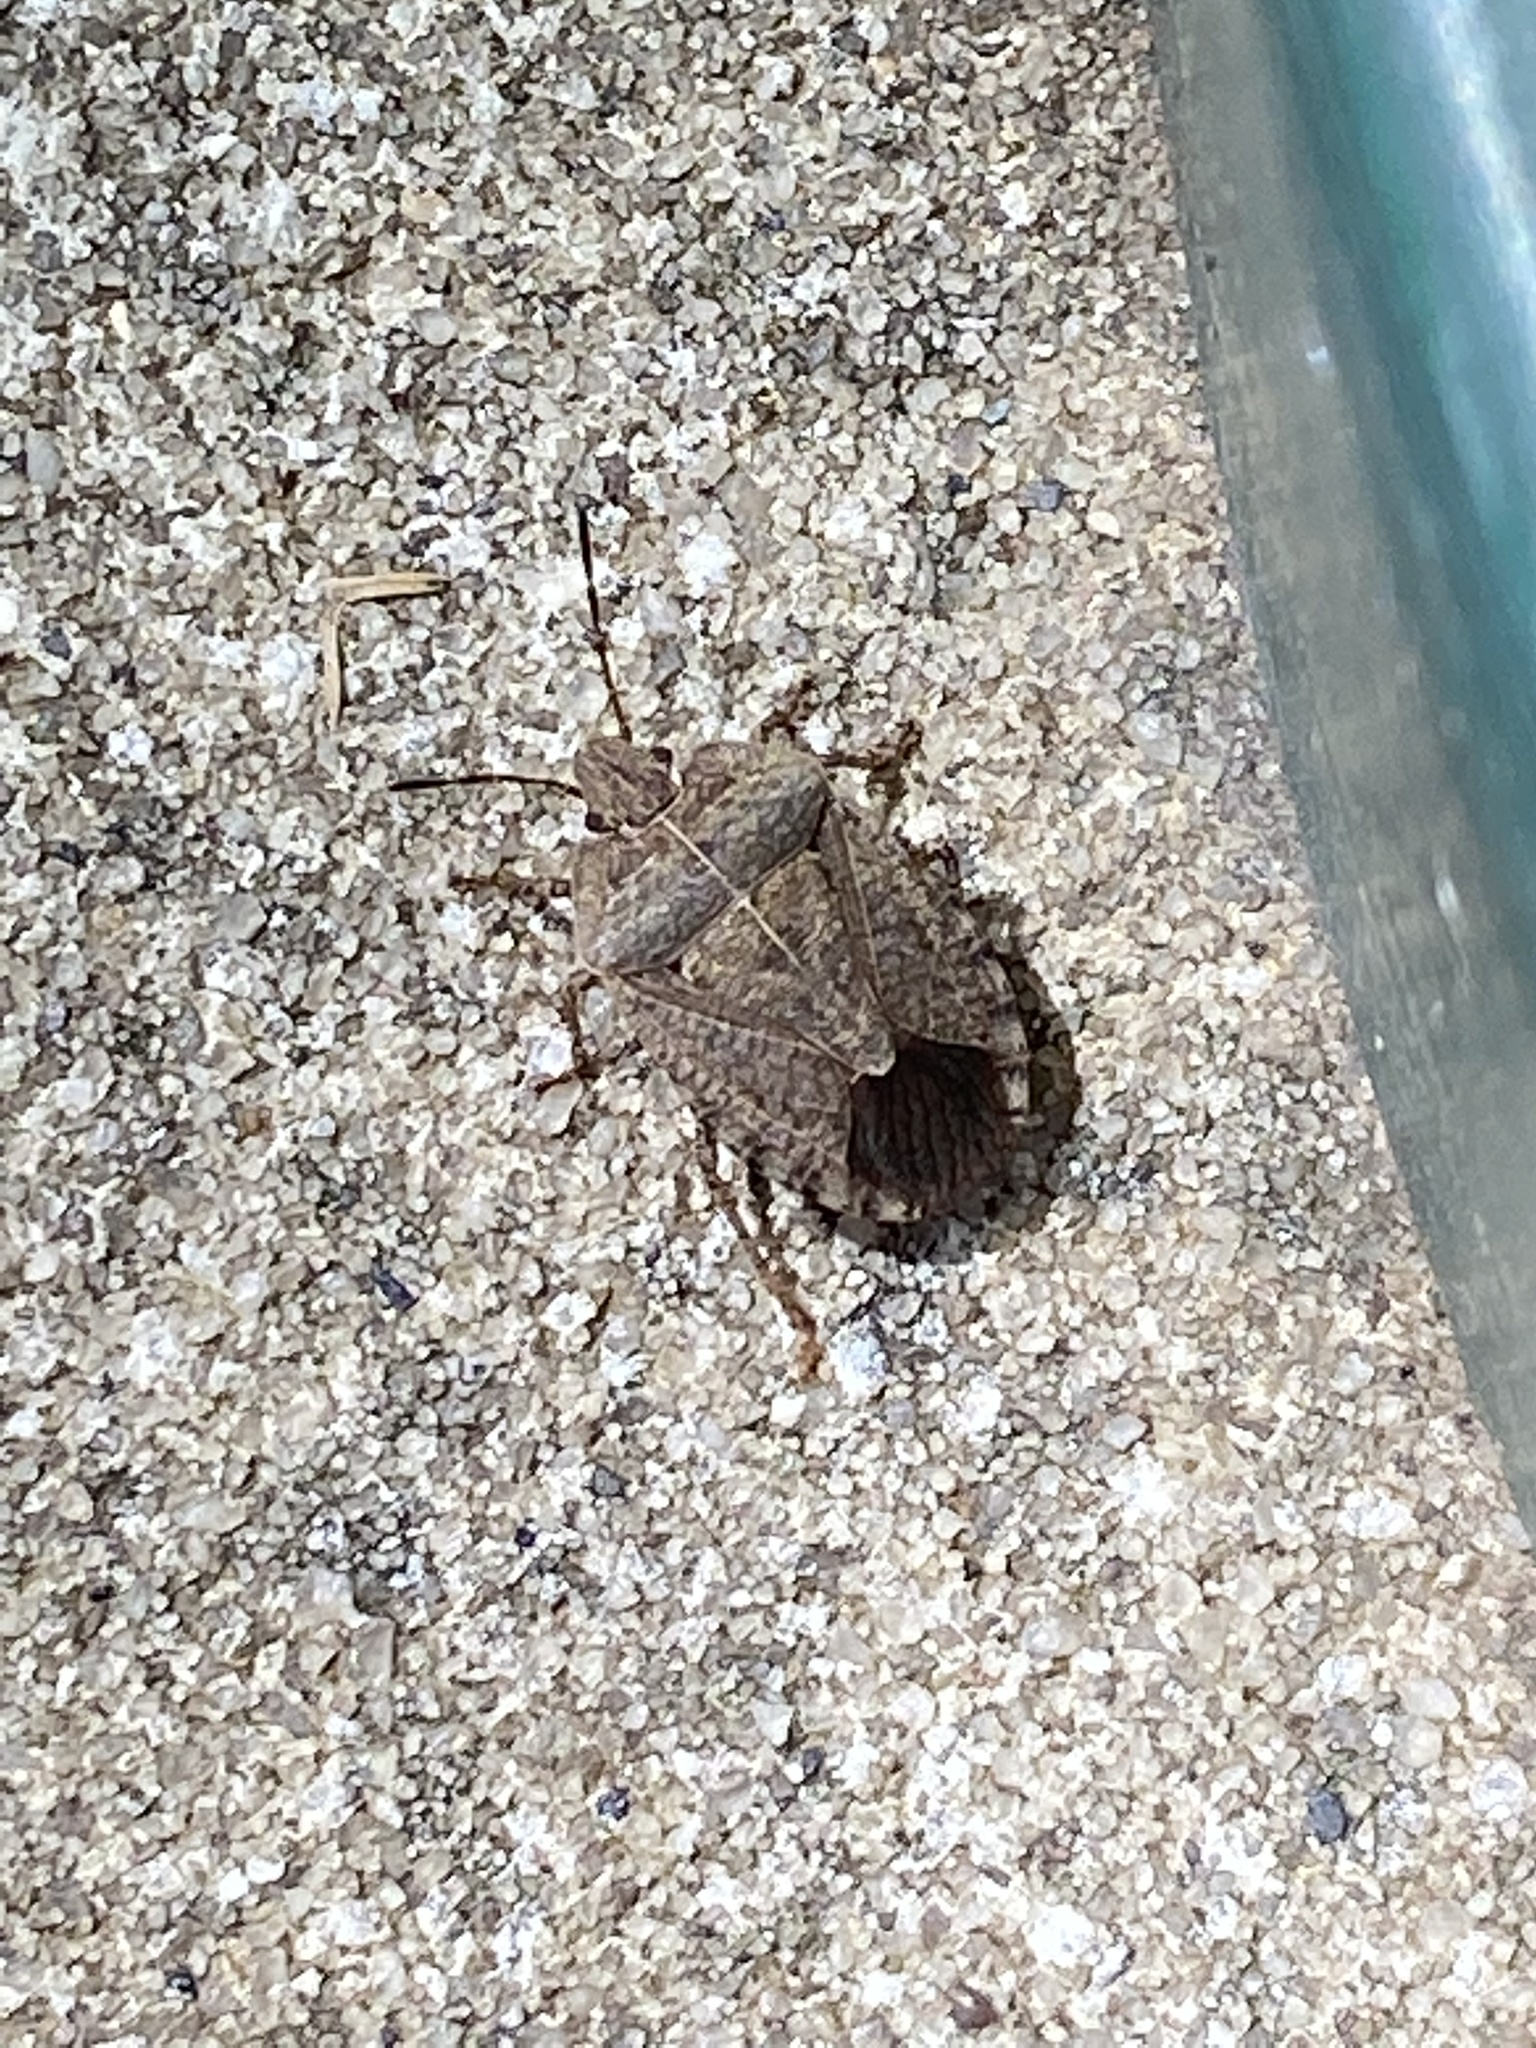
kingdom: Animalia
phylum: Arthropoda
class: Insecta
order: Hemiptera
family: Pentatomidae
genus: Menecles
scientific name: Menecles insertus
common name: Elf shoe stink bug
